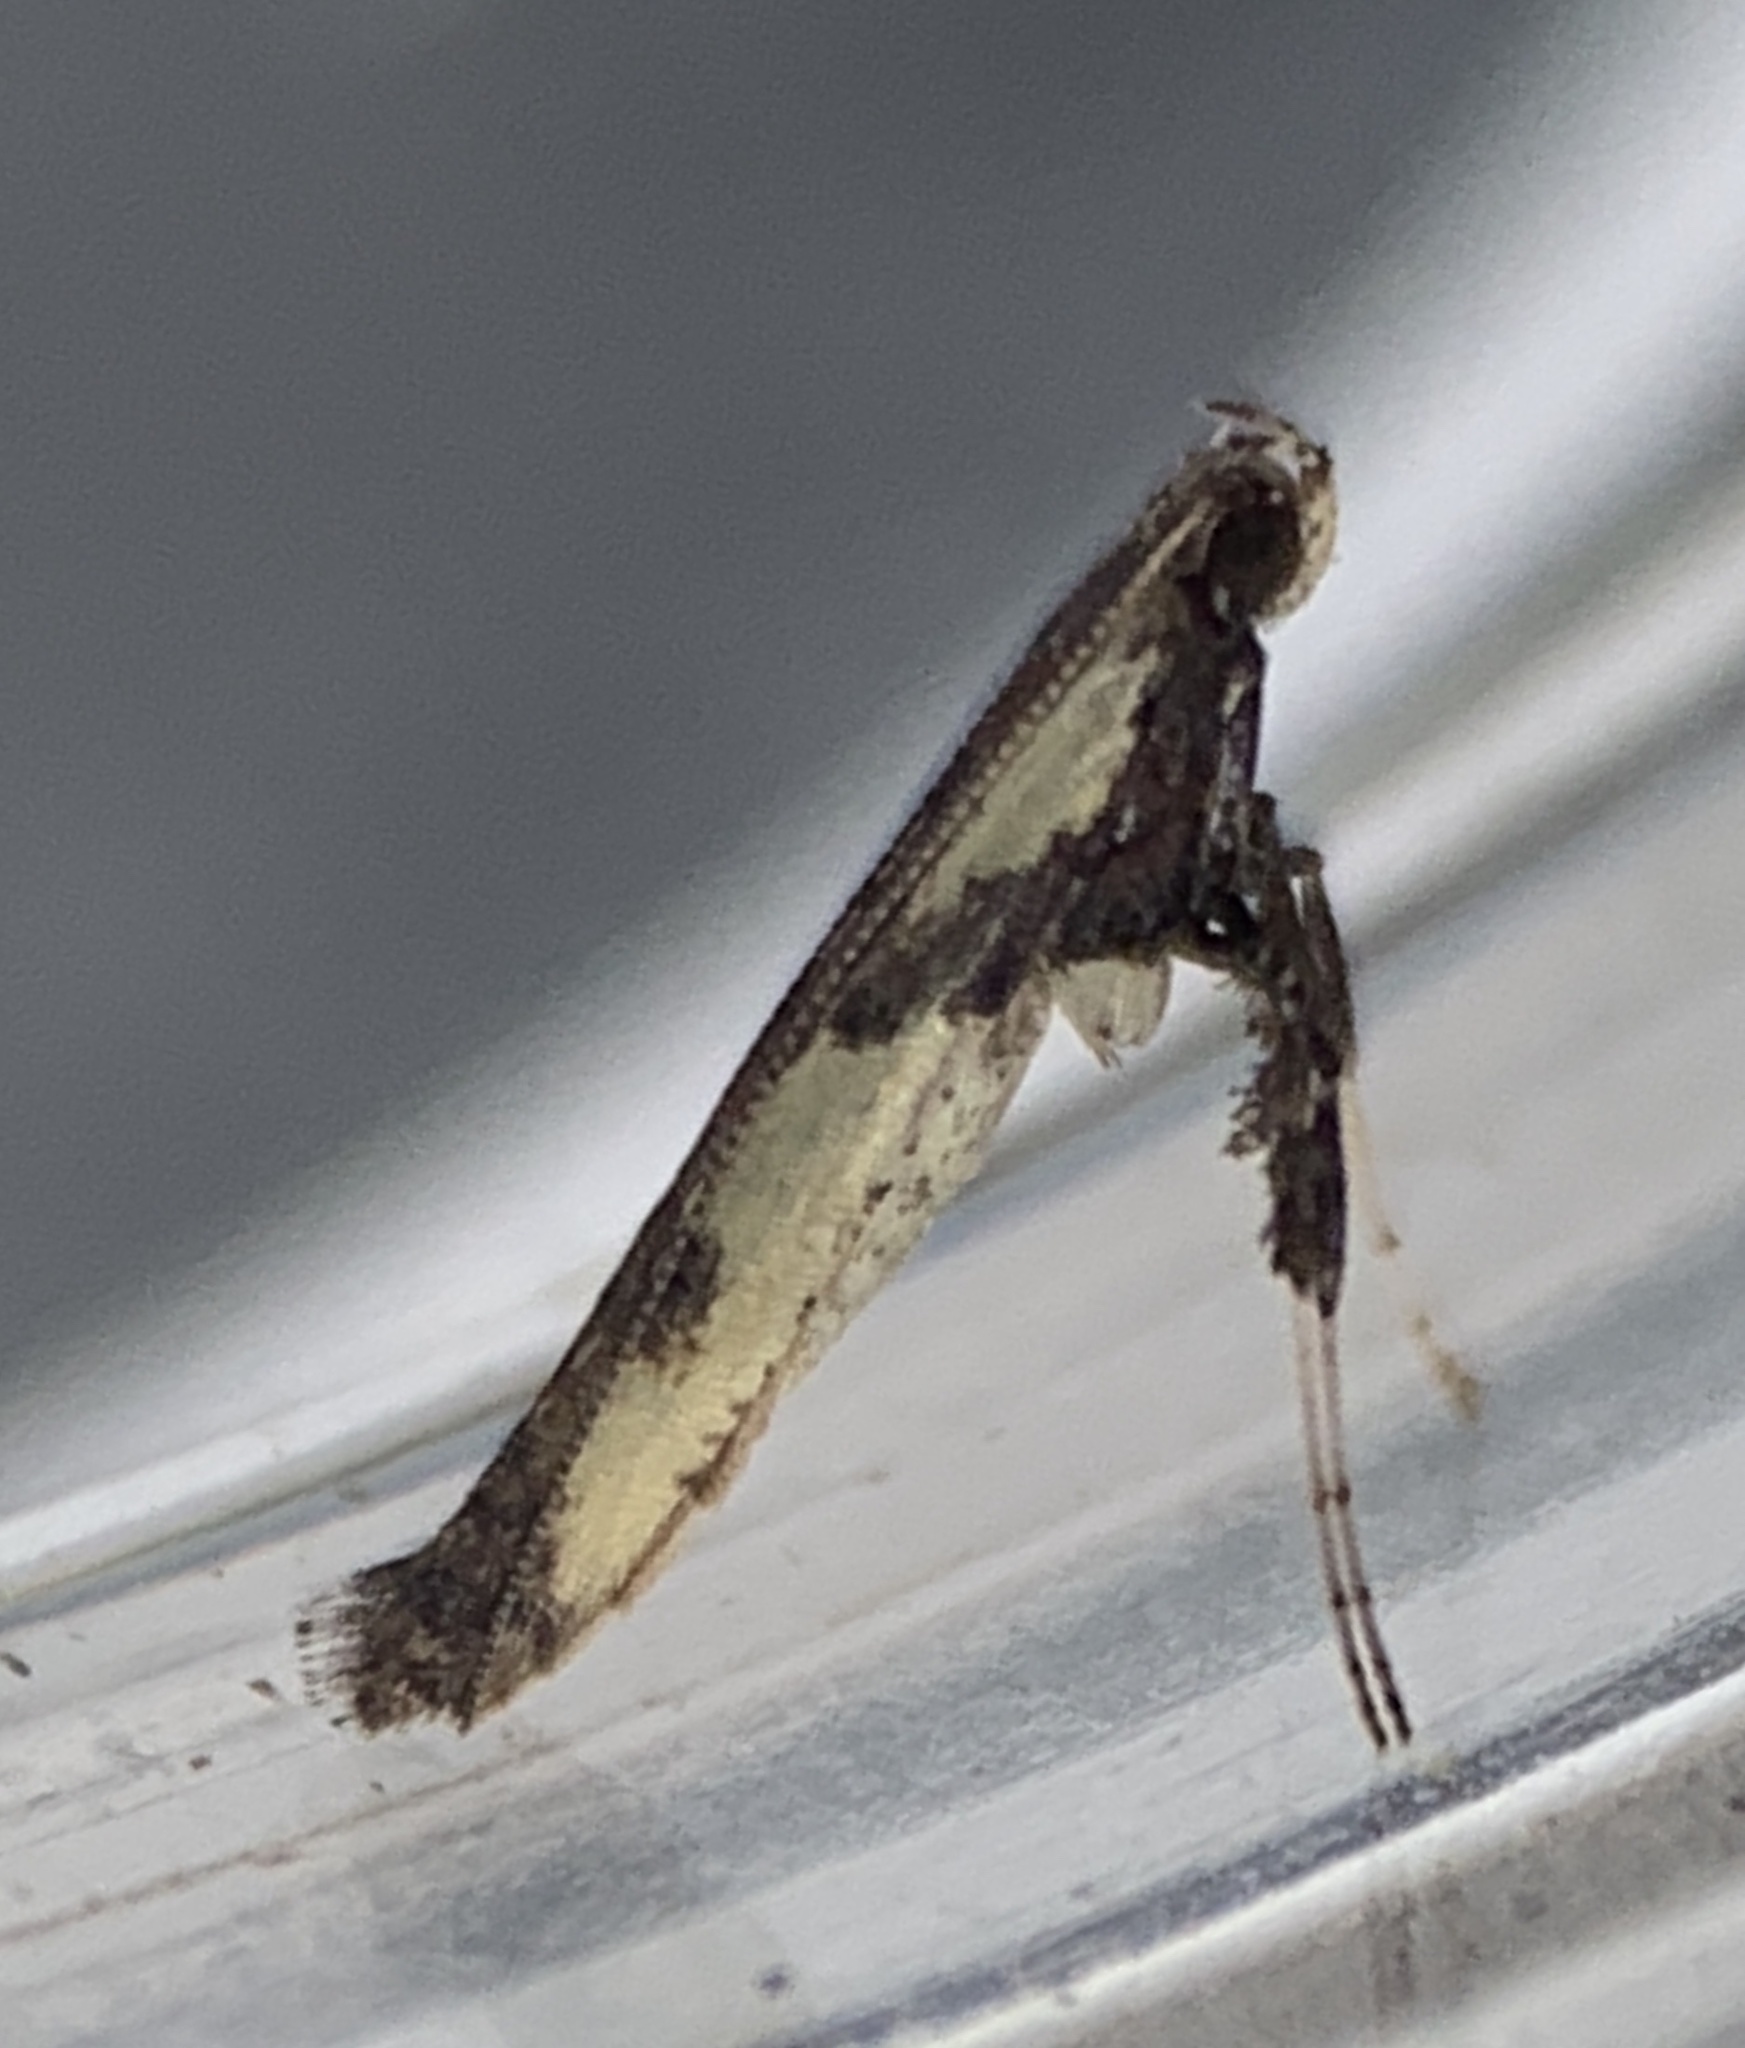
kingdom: Animalia
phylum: Arthropoda
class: Insecta
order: Lepidoptera
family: Gracillariidae
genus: Caloptilia
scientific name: Caloptilia blandella
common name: Walnut caloptilia moth
